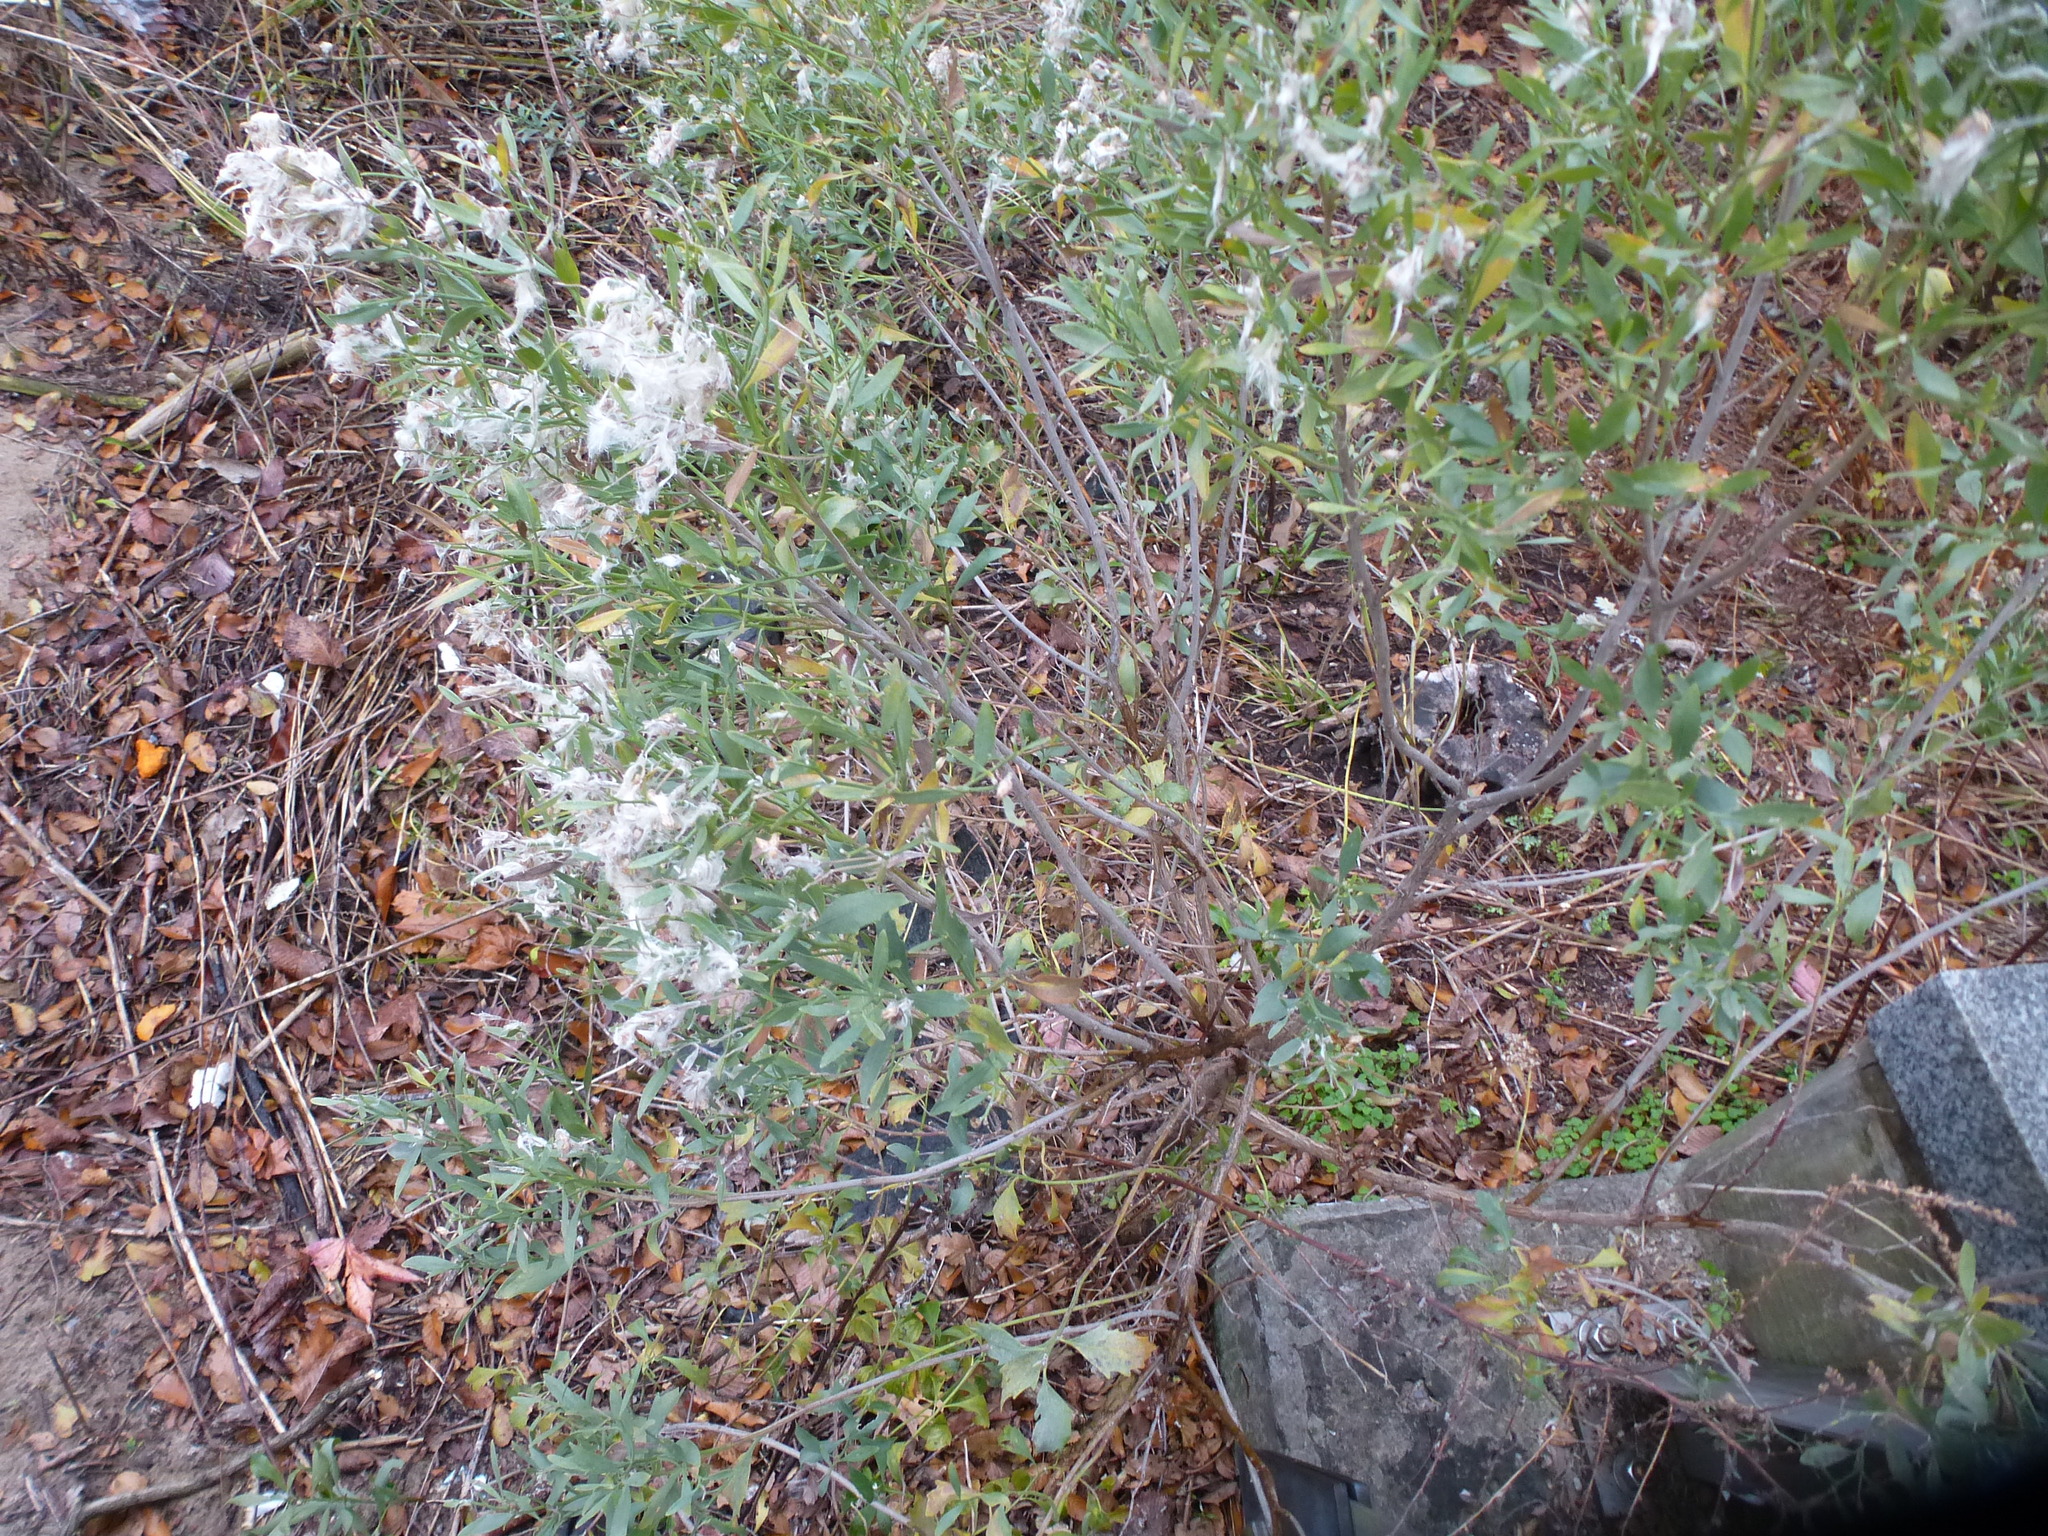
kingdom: Plantae
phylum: Tracheophyta
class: Magnoliopsida
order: Asterales
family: Asteraceae
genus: Baccharis
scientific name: Baccharis halimifolia
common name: Eastern baccharis
